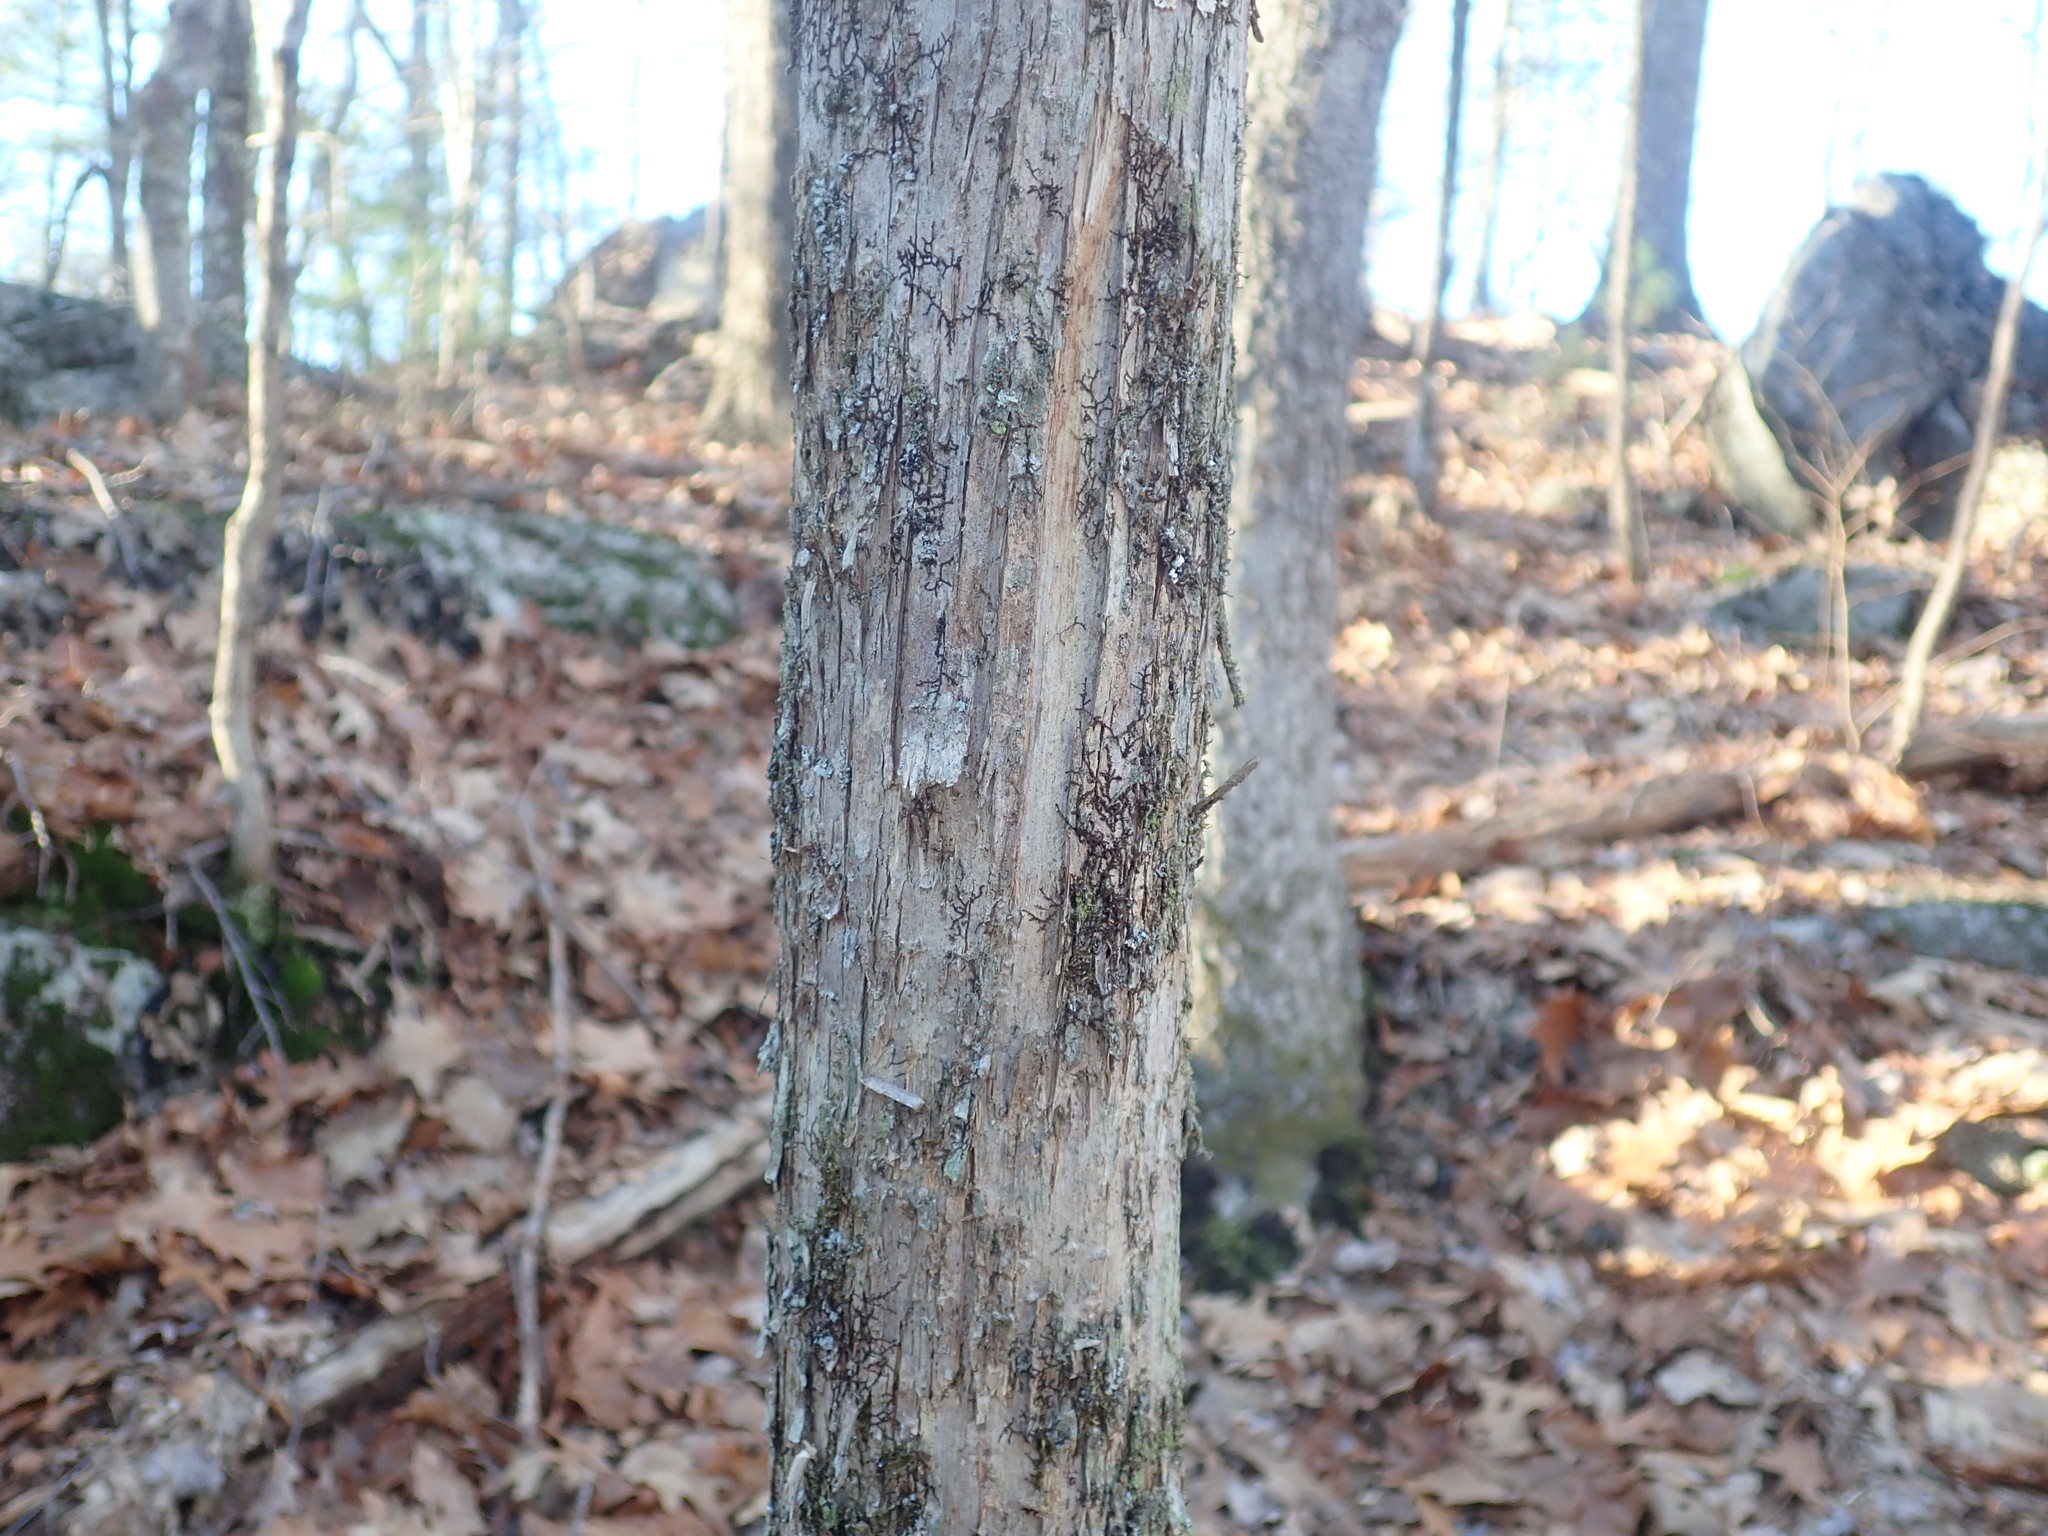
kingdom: Plantae
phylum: Tracheophyta
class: Magnoliopsida
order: Fagales
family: Betulaceae
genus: Ostrya
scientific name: Ostrya virginiana
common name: Ironwood
